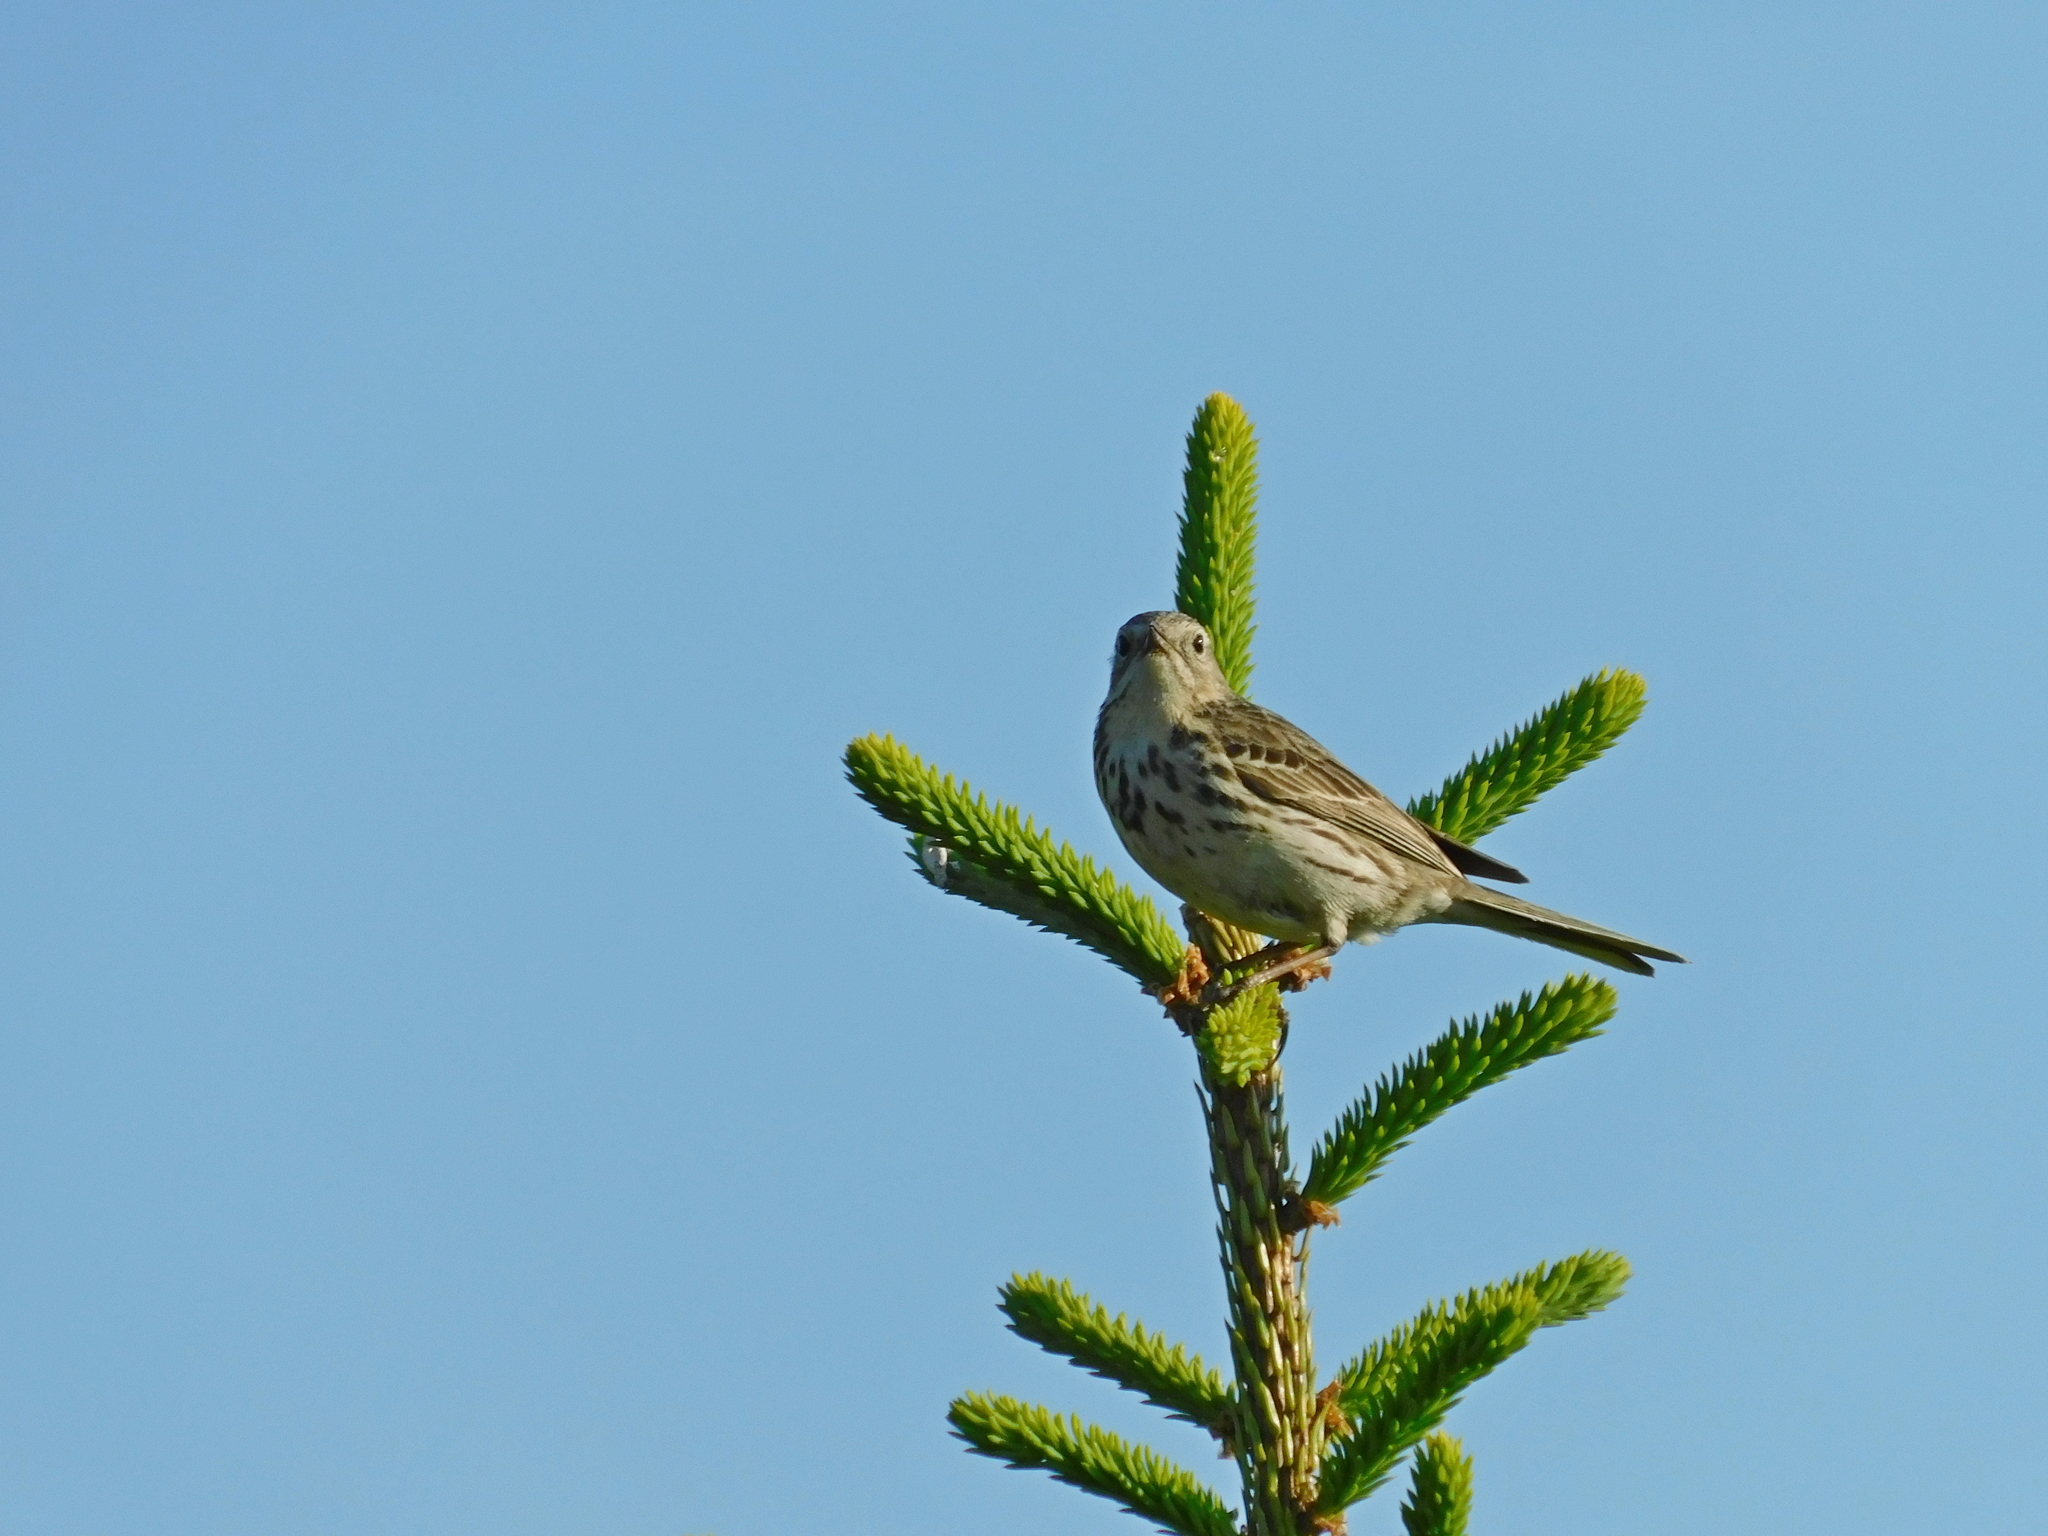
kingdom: Animalia
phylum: Chordata
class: Aves
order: Passeriformes
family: Motacillidae
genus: Anthus
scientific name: Anthus pratensis
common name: Meadow pipit
